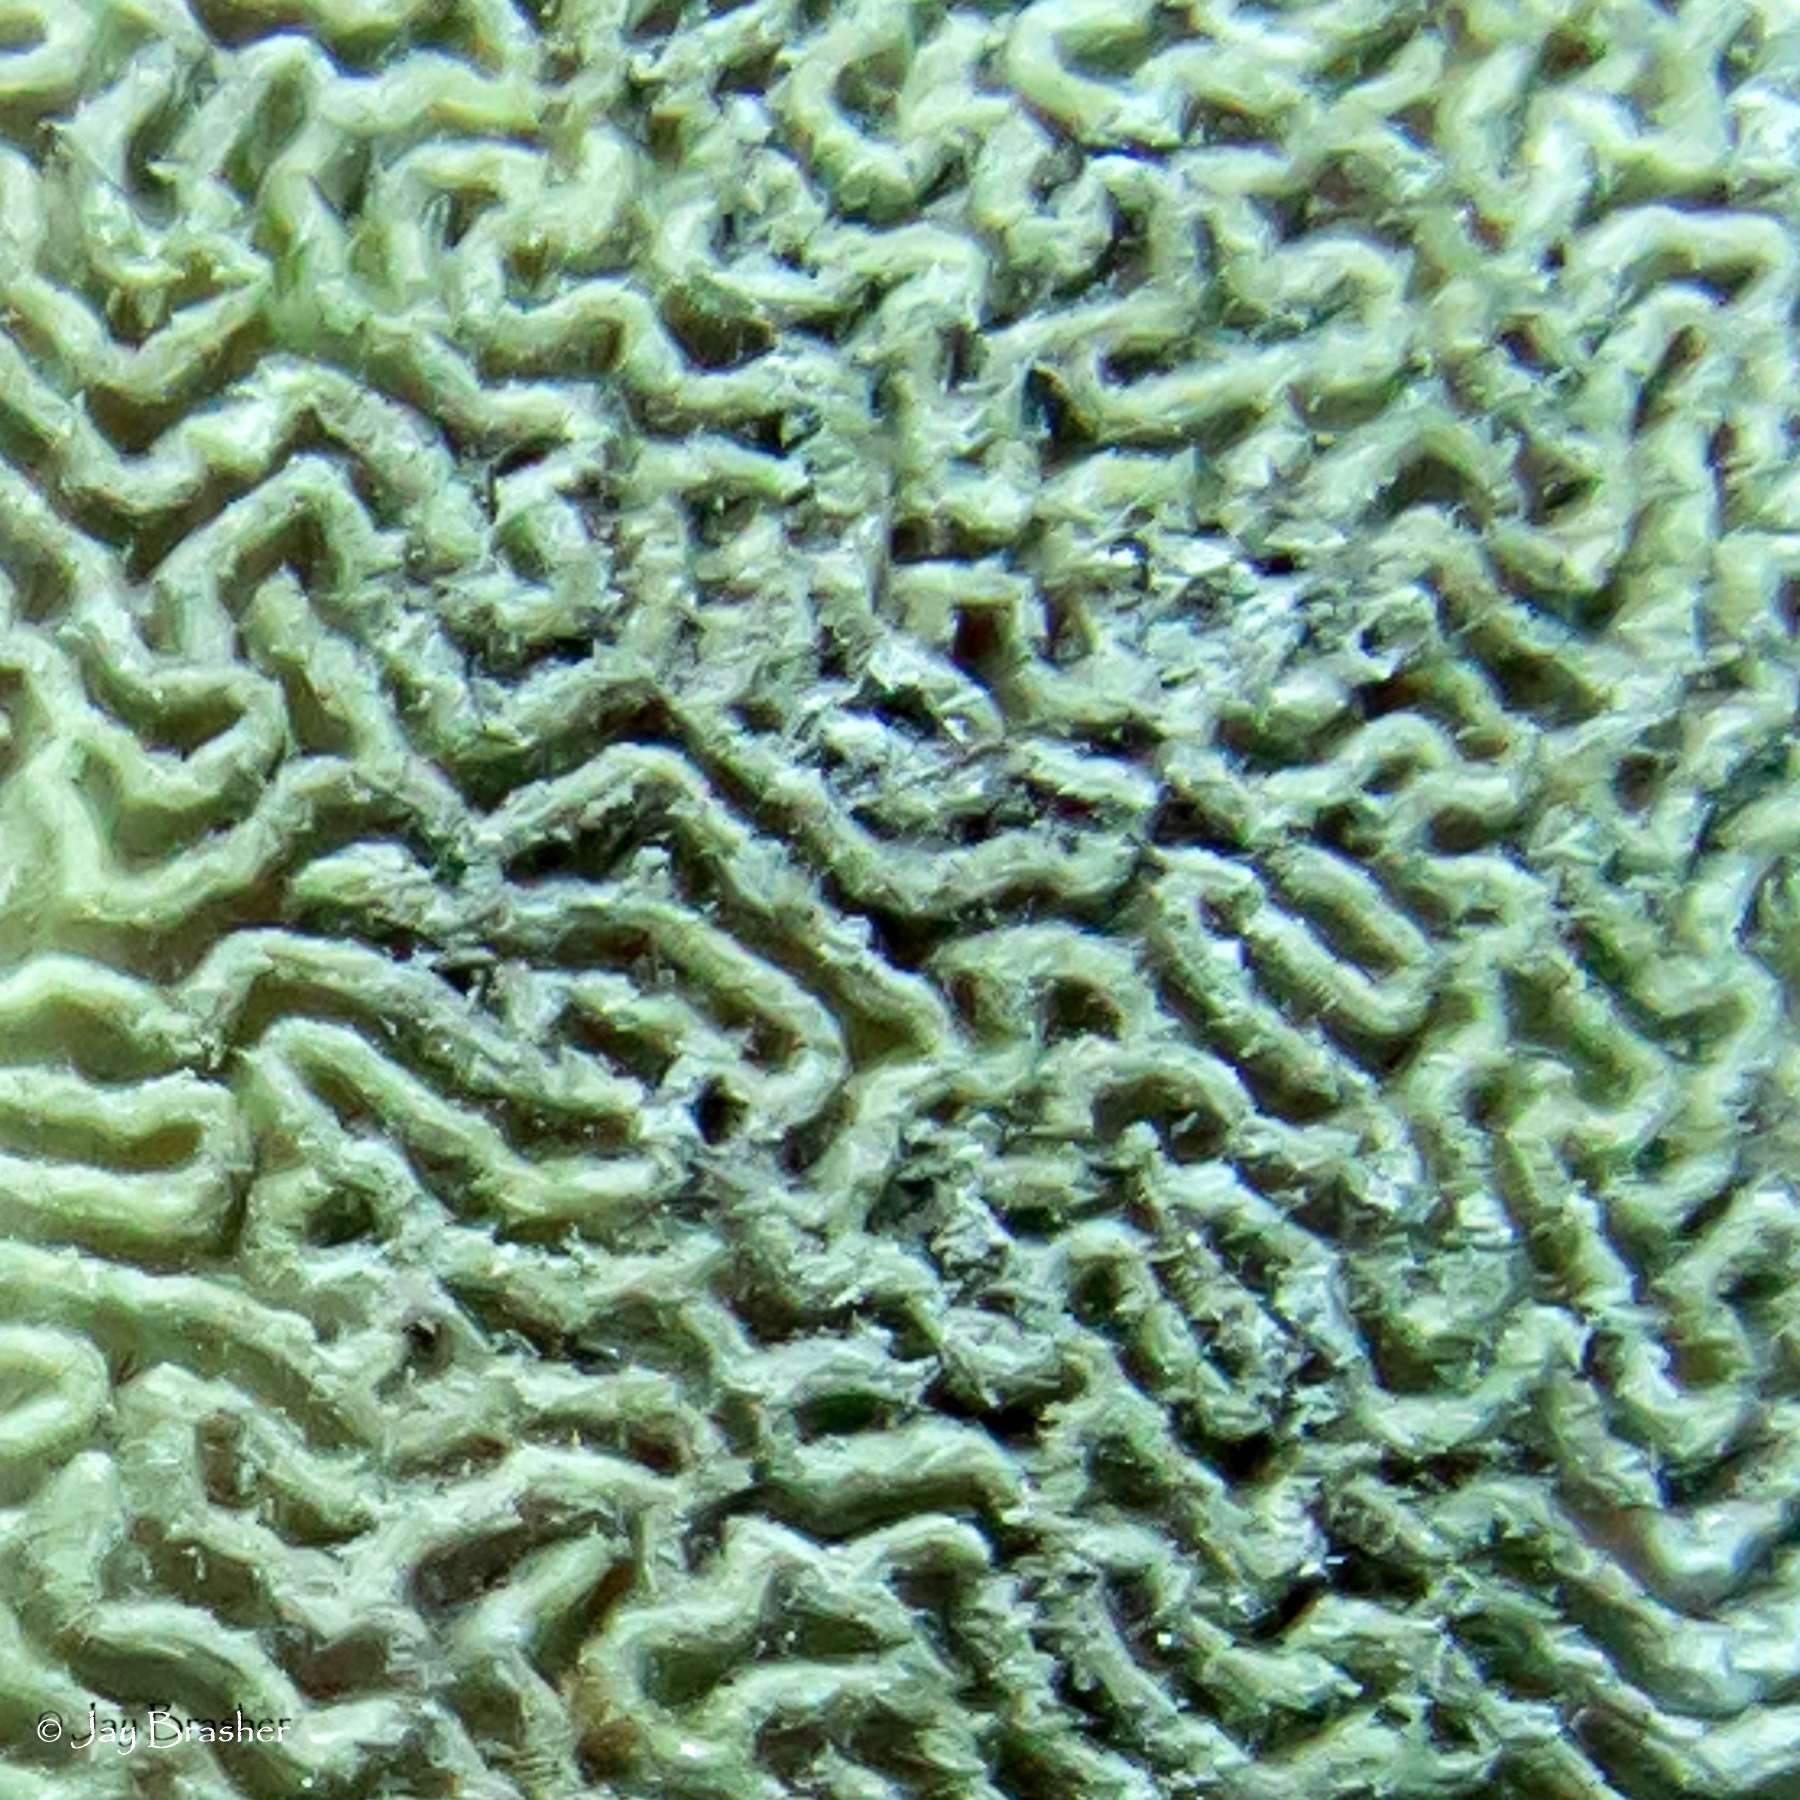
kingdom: Animalia
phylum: Cnidaria
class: Anthozoa
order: Scleractinia
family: Faviidae
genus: Pseudodiploria
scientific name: Pseudodiploria strigosa
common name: Symmetrical brain coral
